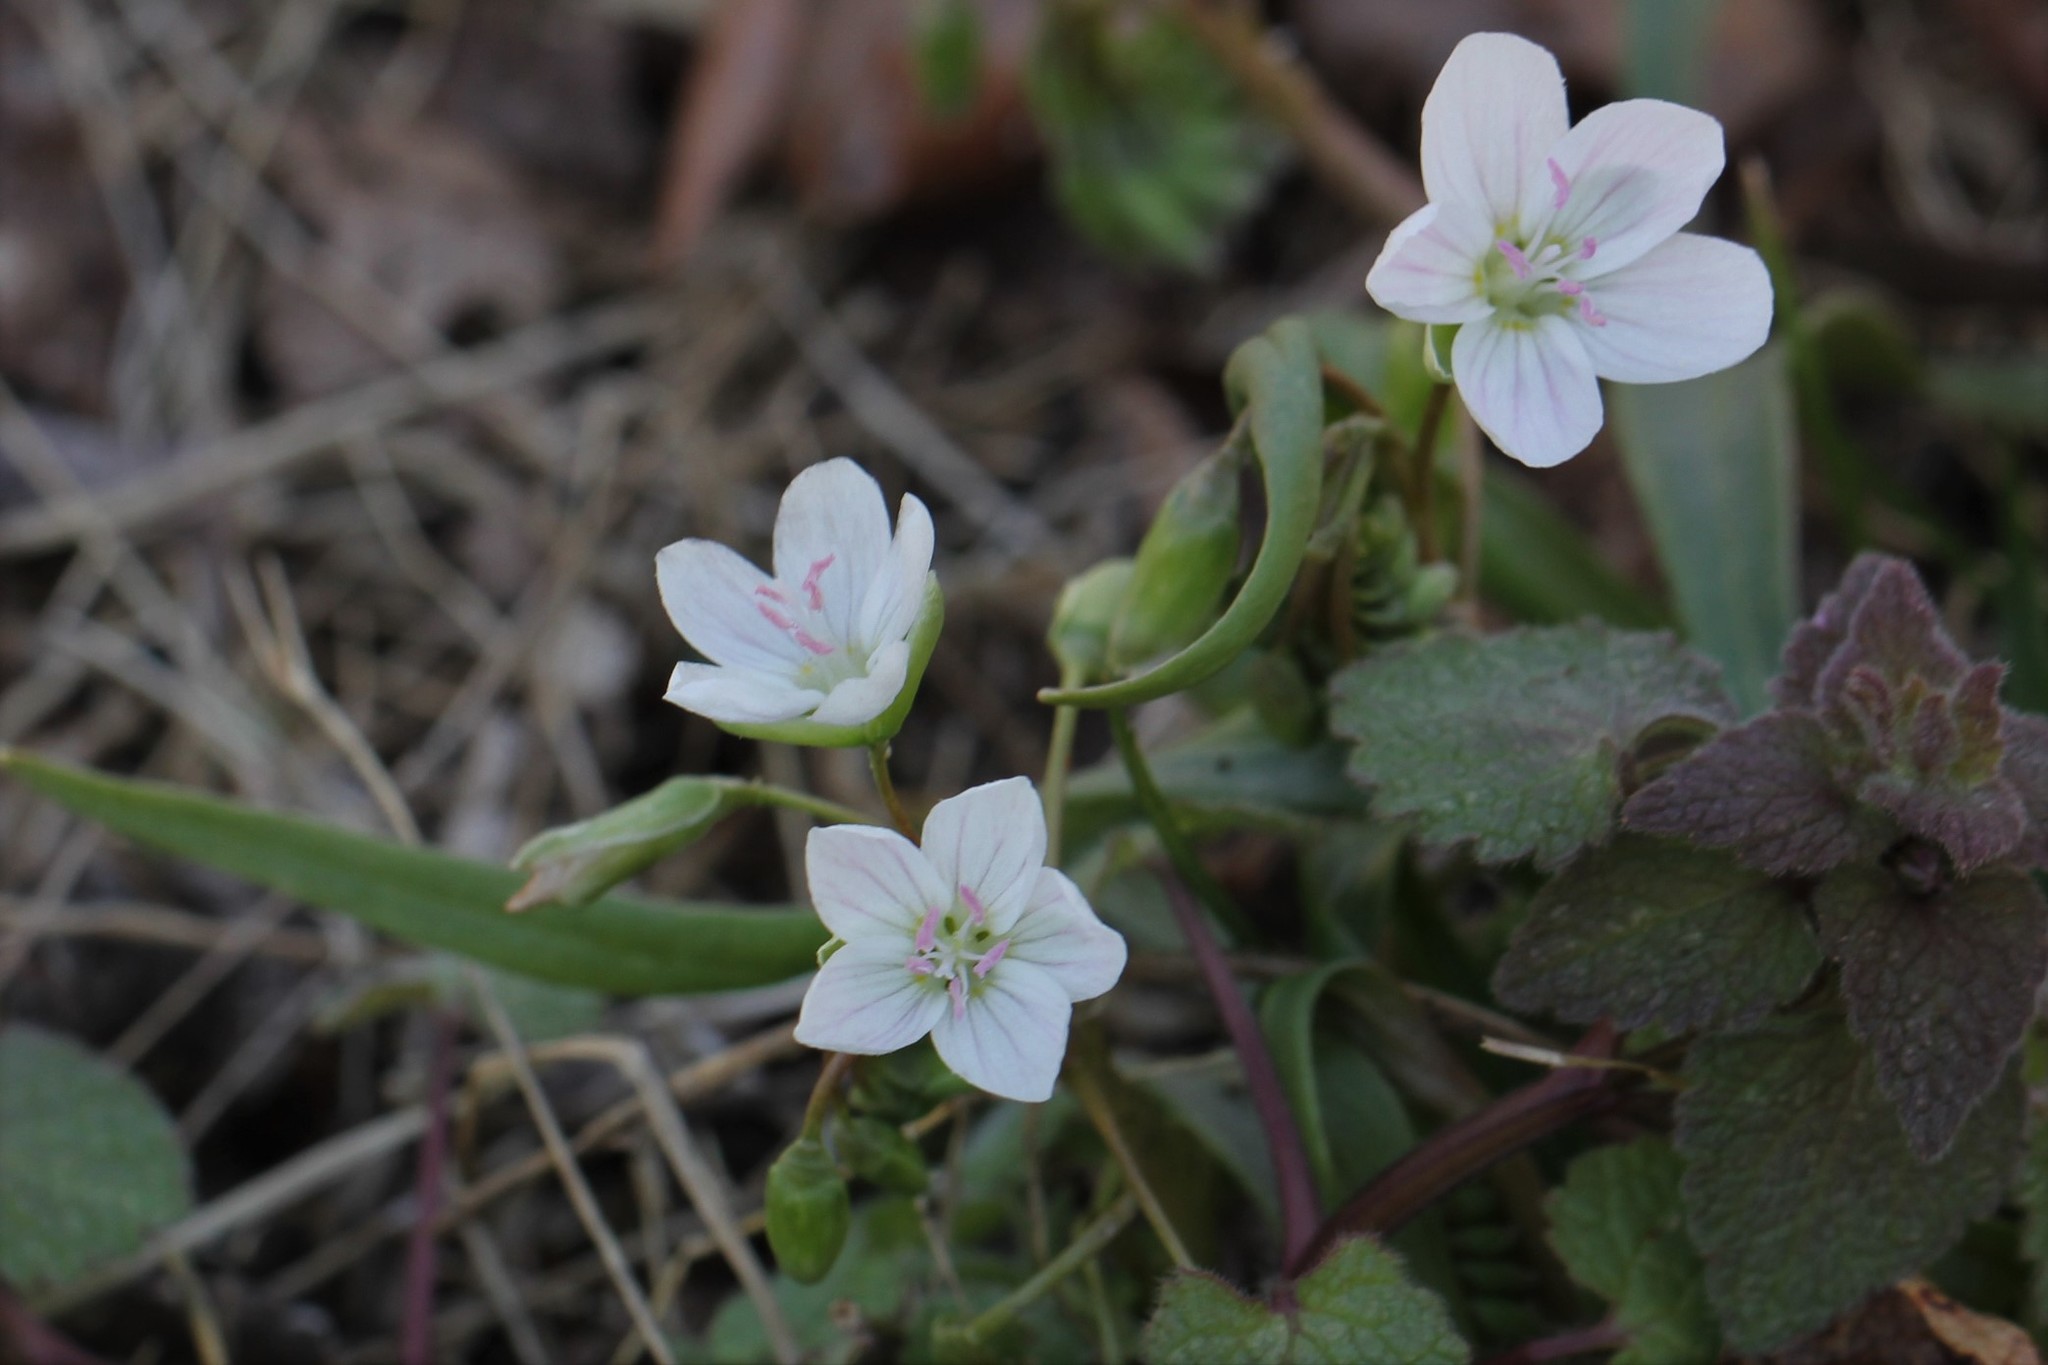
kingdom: Plantae
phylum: Tracheophyta
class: Magnoliopsida
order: Caryophyllales
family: Montiaceae
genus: Claytonia
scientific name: Claytonia virginica
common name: Virginia springbeauty
